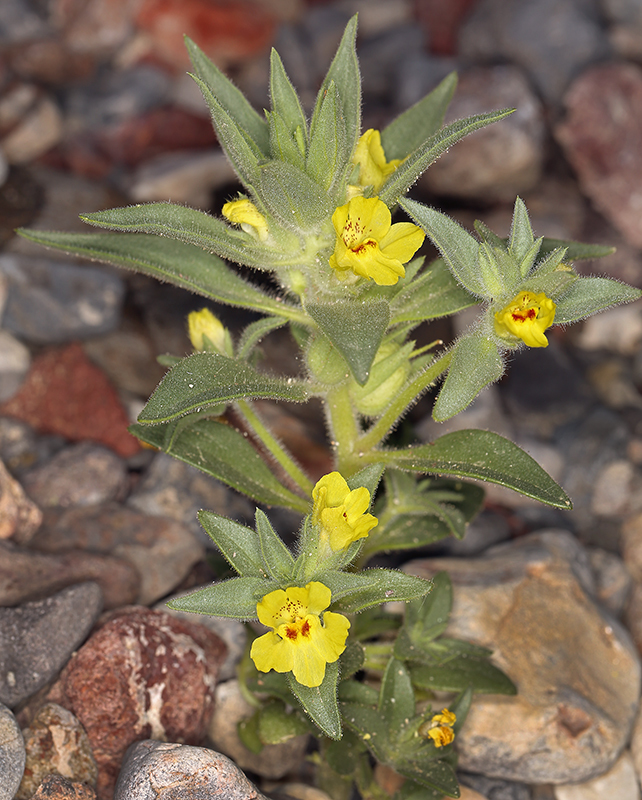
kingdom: Plantae
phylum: Tracheophyta
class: Magnoliopsida
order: Lamiales
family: Plantaginaceae
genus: Mohavea
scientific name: Mohavea breviflora
